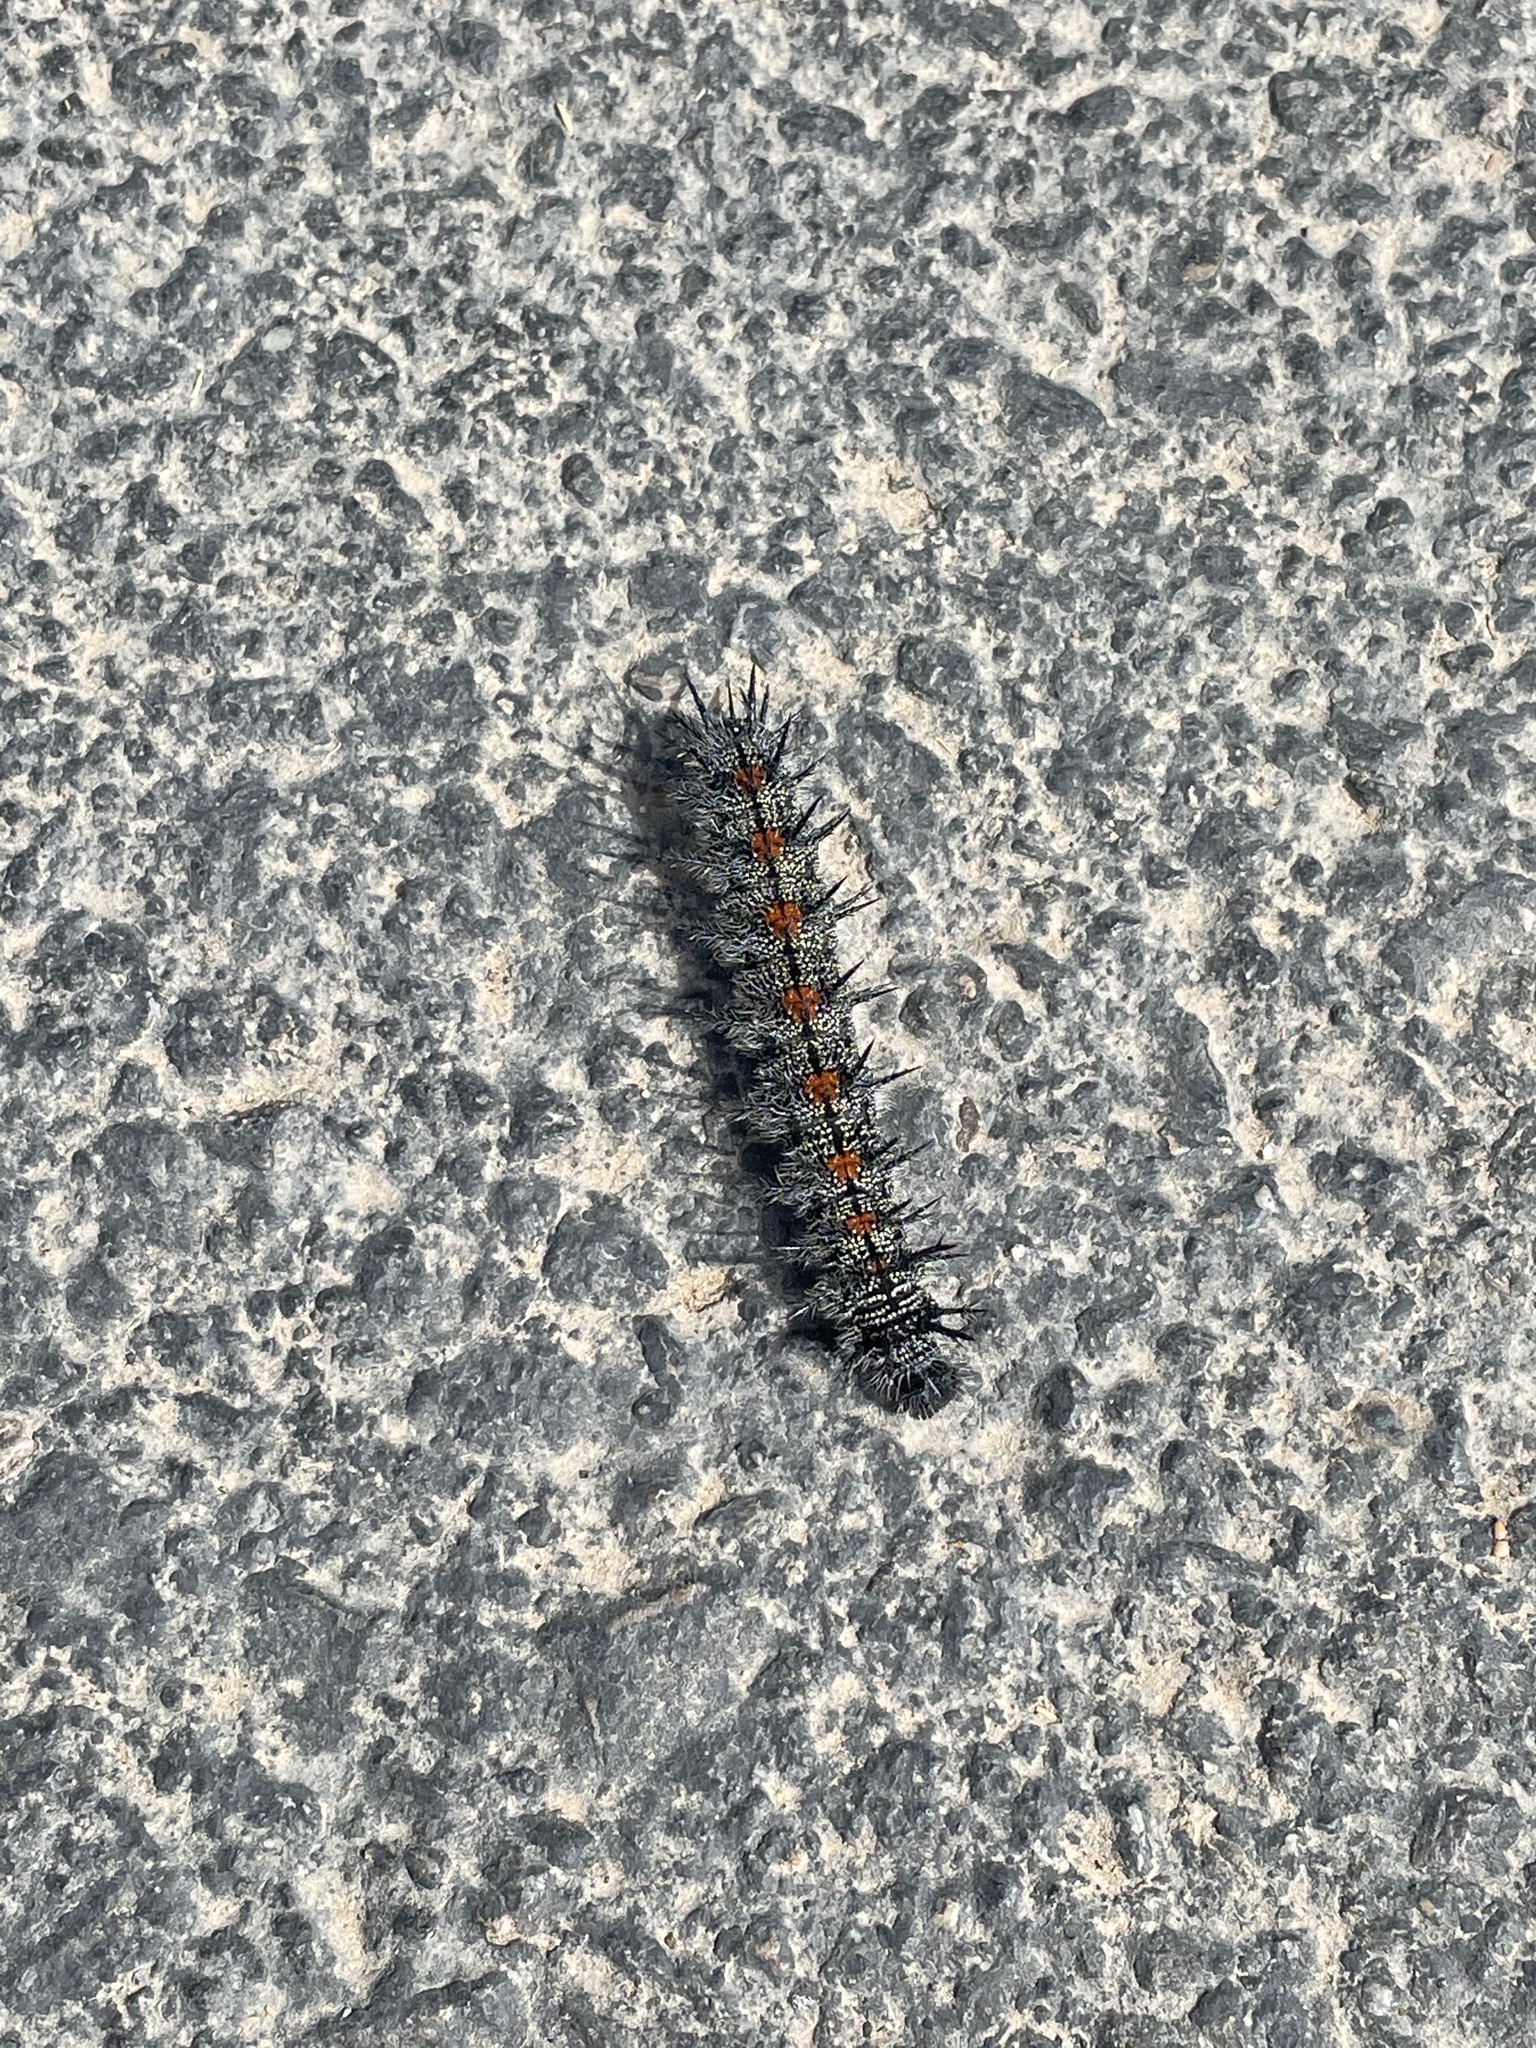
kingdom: Animalia
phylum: Arthropoda
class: Insecta
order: Lepidoptera
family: Nymphalidae
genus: Nymphalis
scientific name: Nymphalis antiopa
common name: Camberwell beauty
